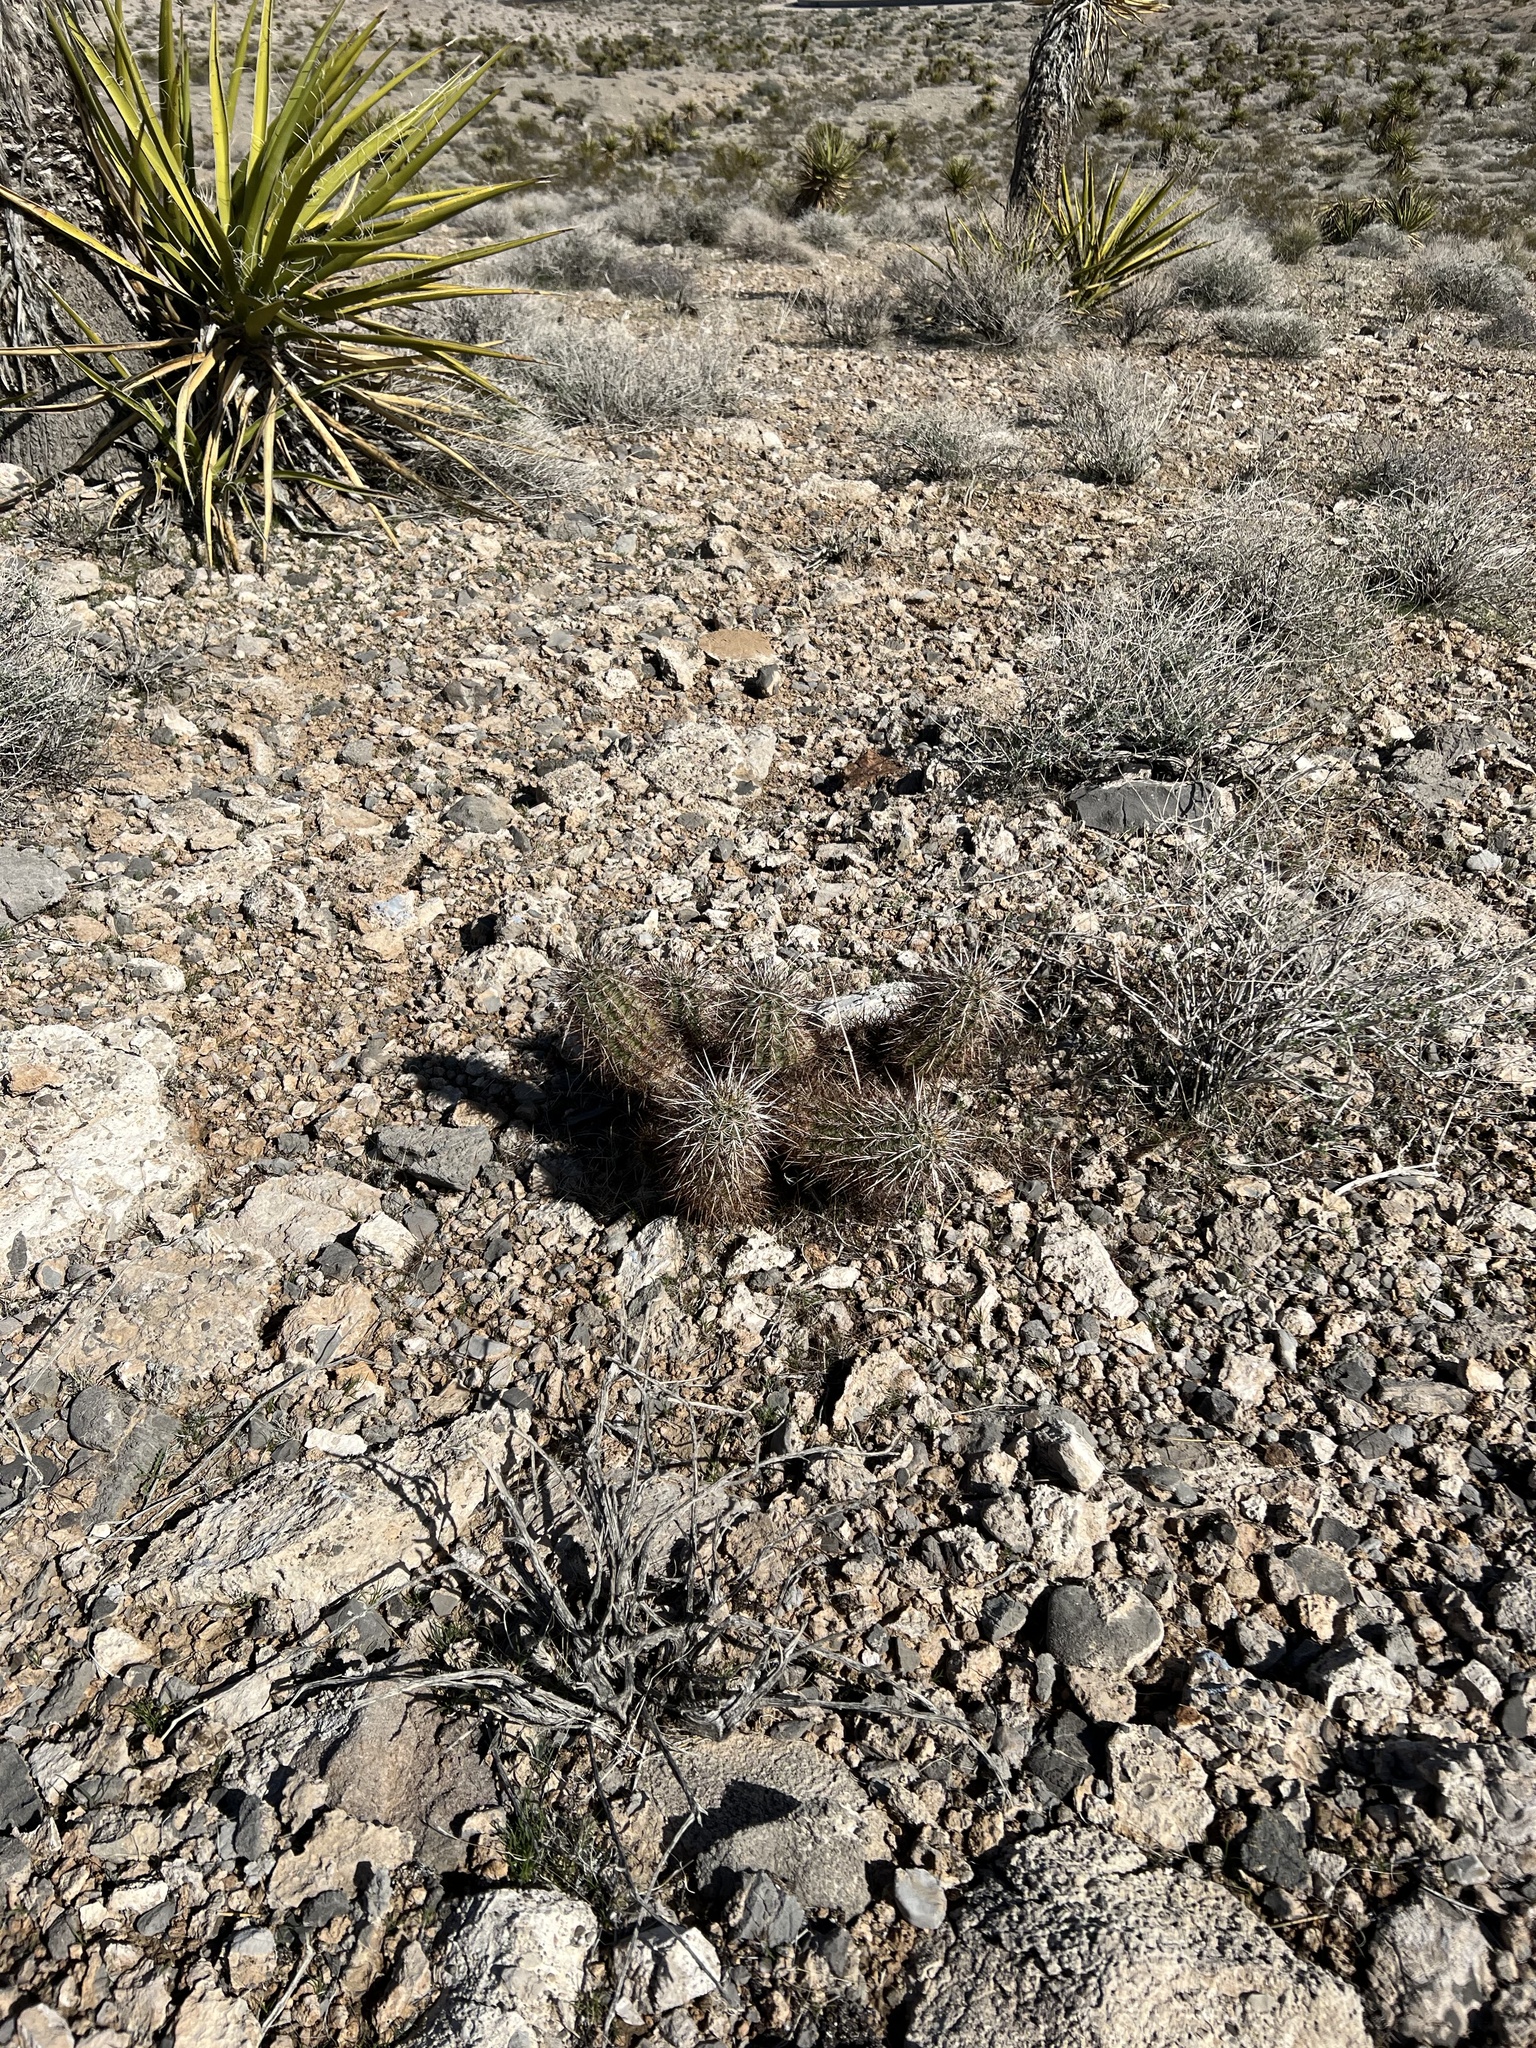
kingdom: Plantae
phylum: Tracheophyta
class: Magnoliopsida
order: Caryophyllales
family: Cactaceae
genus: Echinocereus
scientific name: Echinocereus engelmannii
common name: Engelmann's hedgehog cactus
